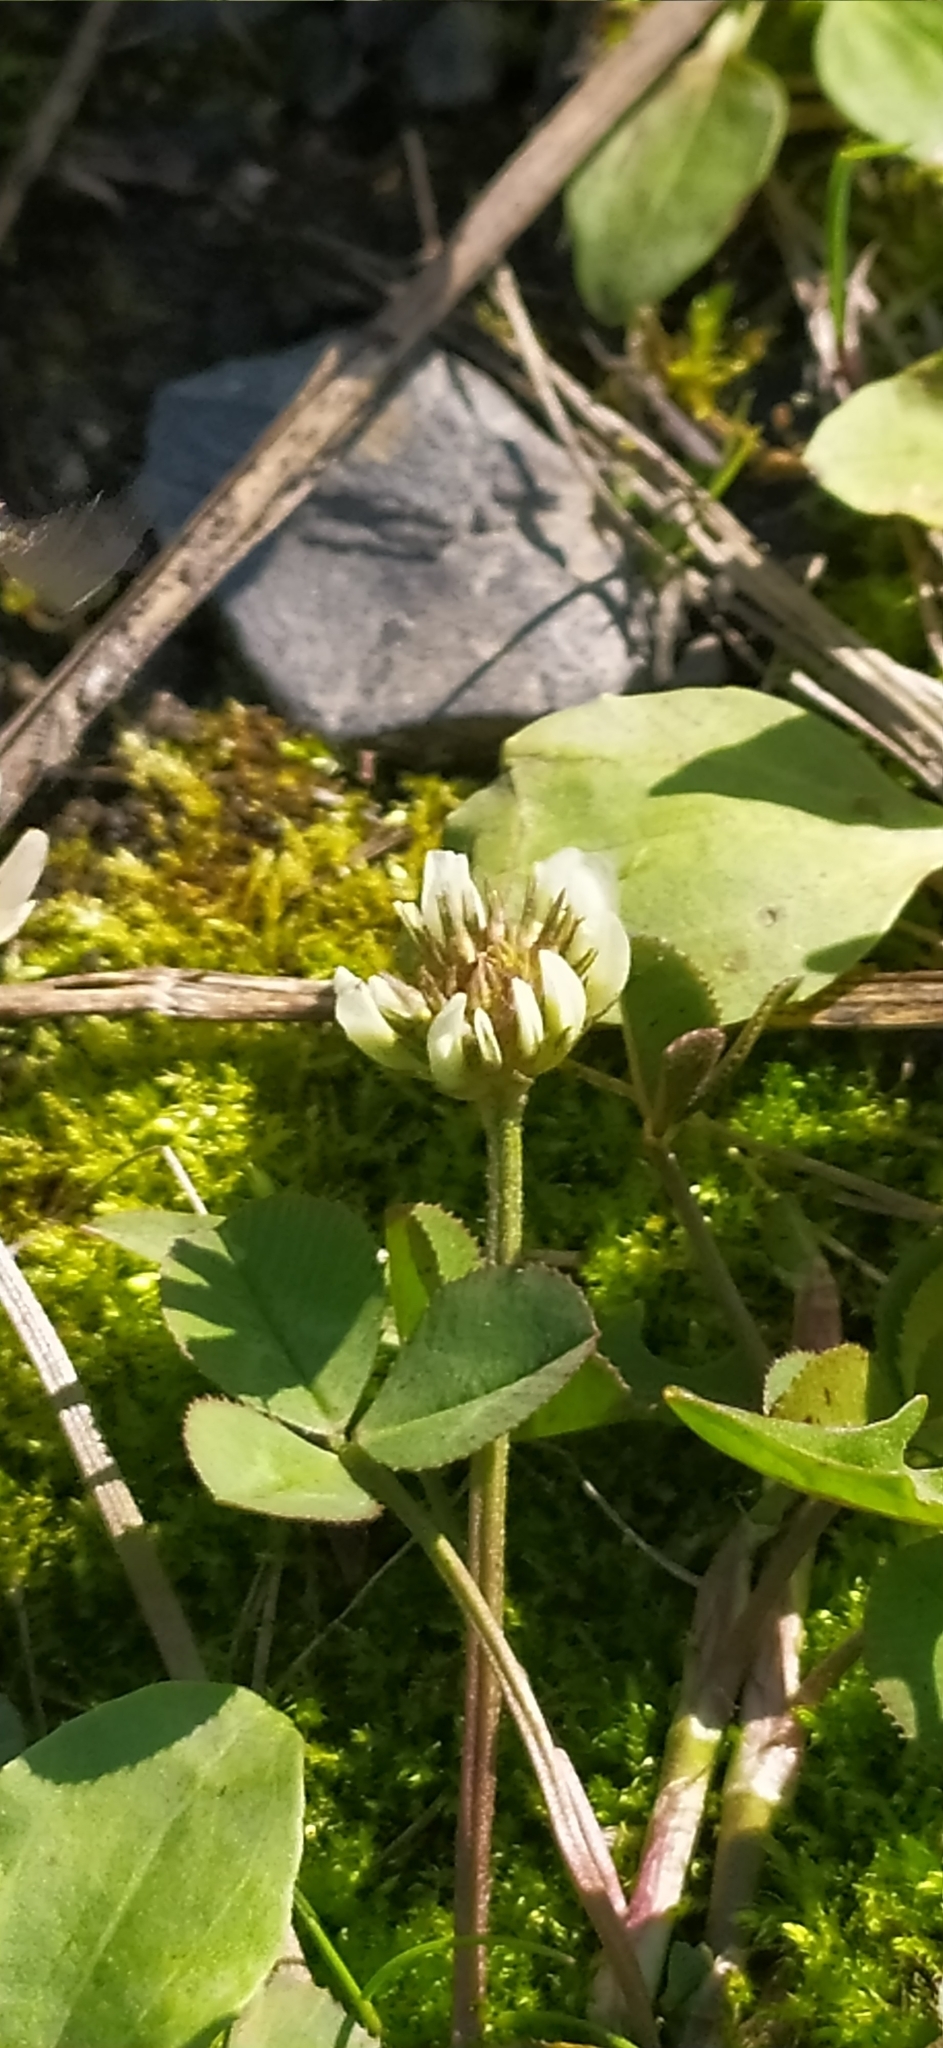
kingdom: Plantae
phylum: Tracheophyta
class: Magnoliopsida
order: Fabales
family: Fabaceae
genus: Trifolium
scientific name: Trifolium repens
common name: White clover
